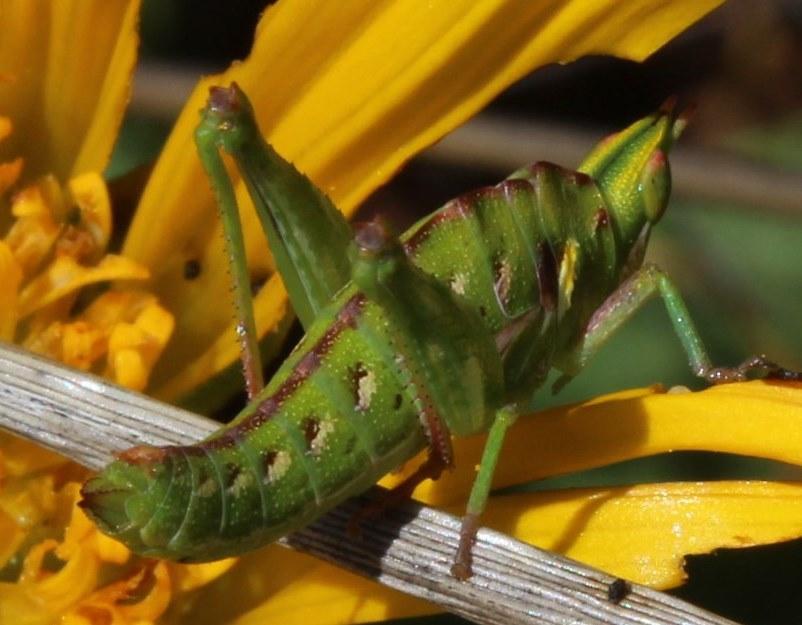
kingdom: Animalia
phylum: Arthropoda
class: Insecta
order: Orthoptera
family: Thericleidae
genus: Thericlesiella
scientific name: Thericlesiella meridionalis
